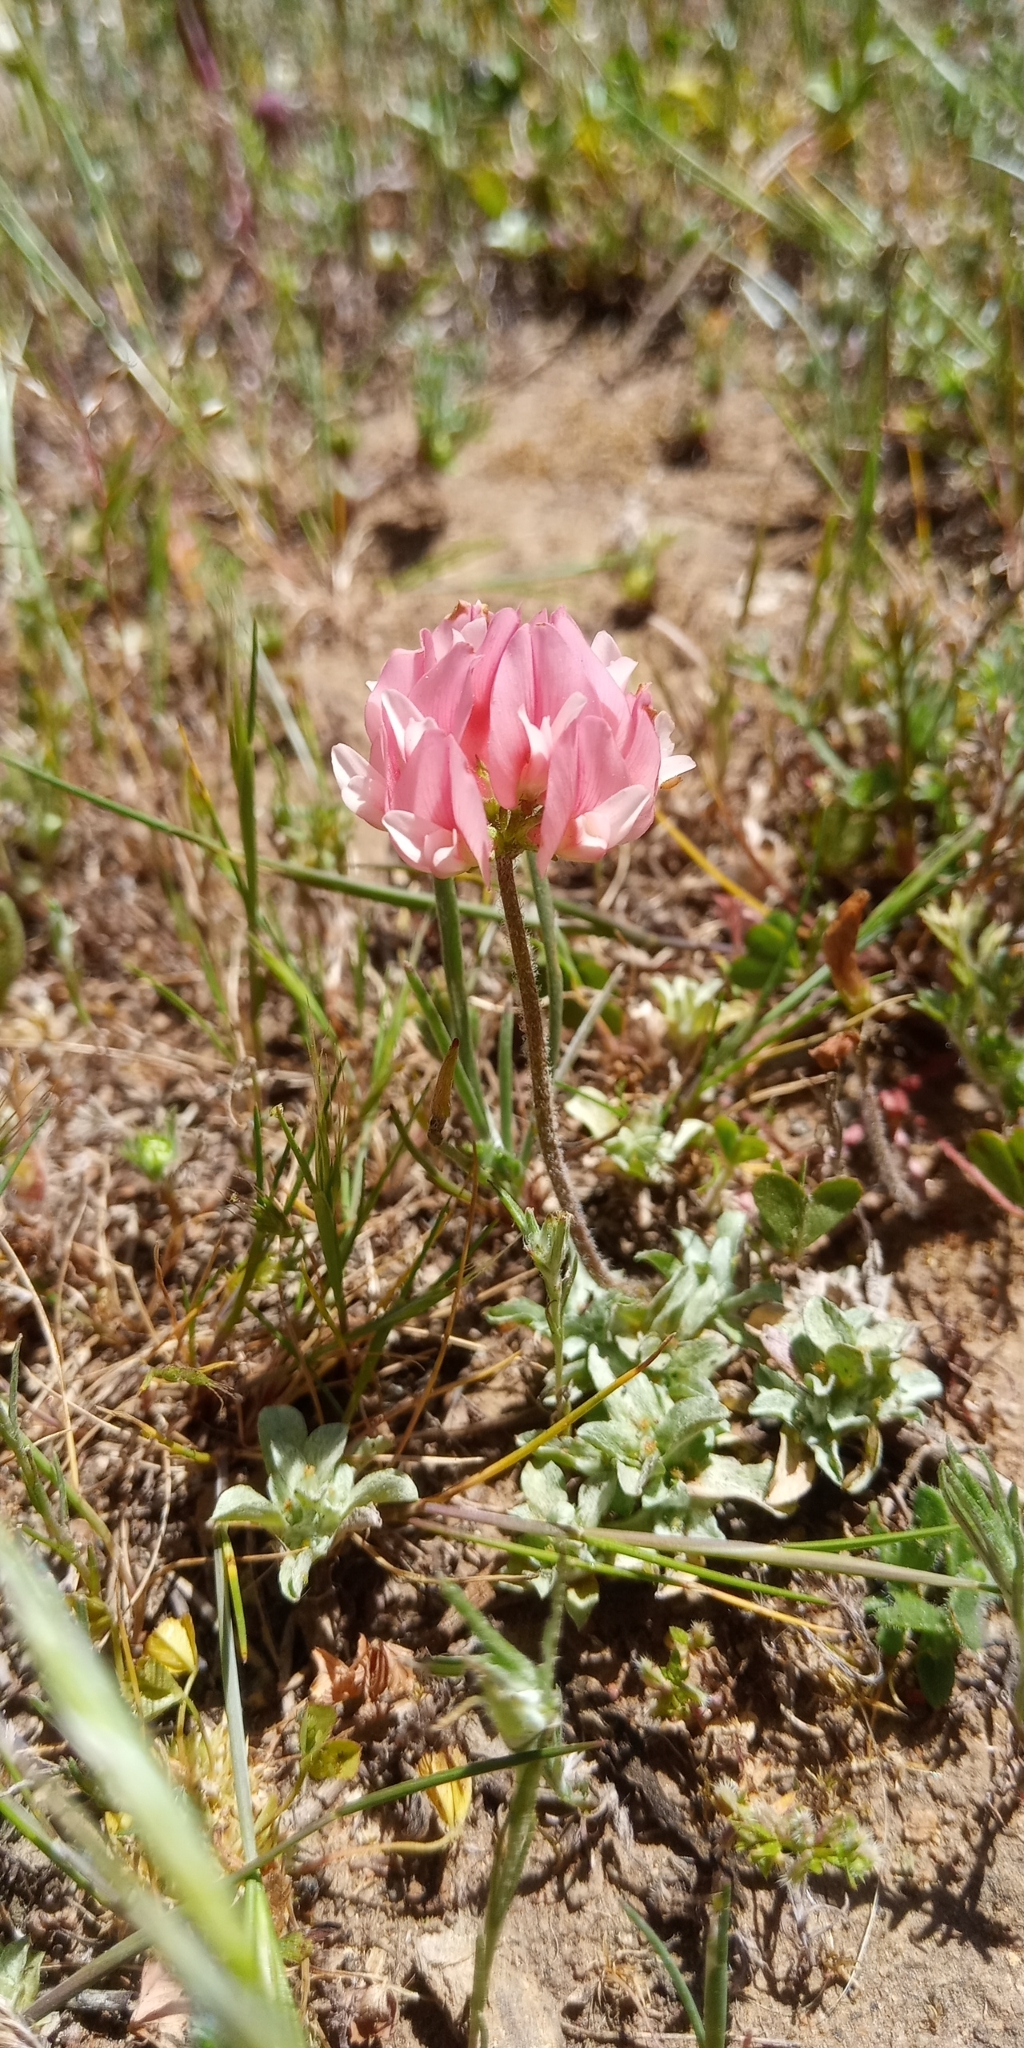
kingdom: Plantae
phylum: Tracheophyta
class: Magnoliopsida
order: Fabales
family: Fabaceae
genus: Trifolium
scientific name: Trifolium polymorphum
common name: Peanut clover
